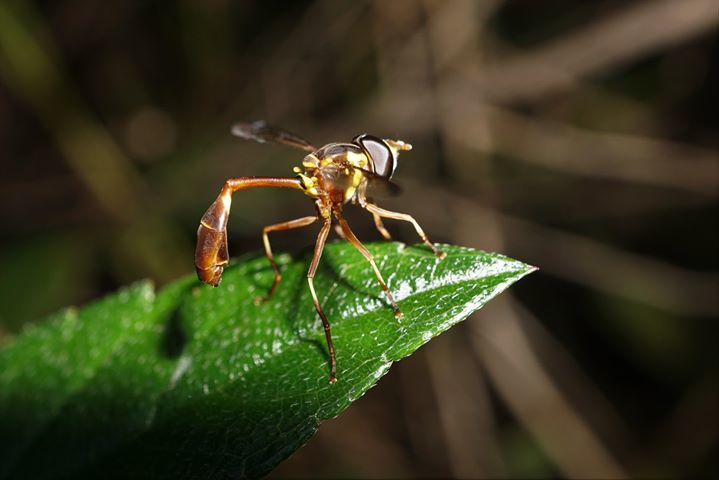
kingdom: Animalia
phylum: Arthropoda
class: Insecta
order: Diptera
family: Syrphidae
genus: Salpingogaster
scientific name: Salpingogaster punctifrons
